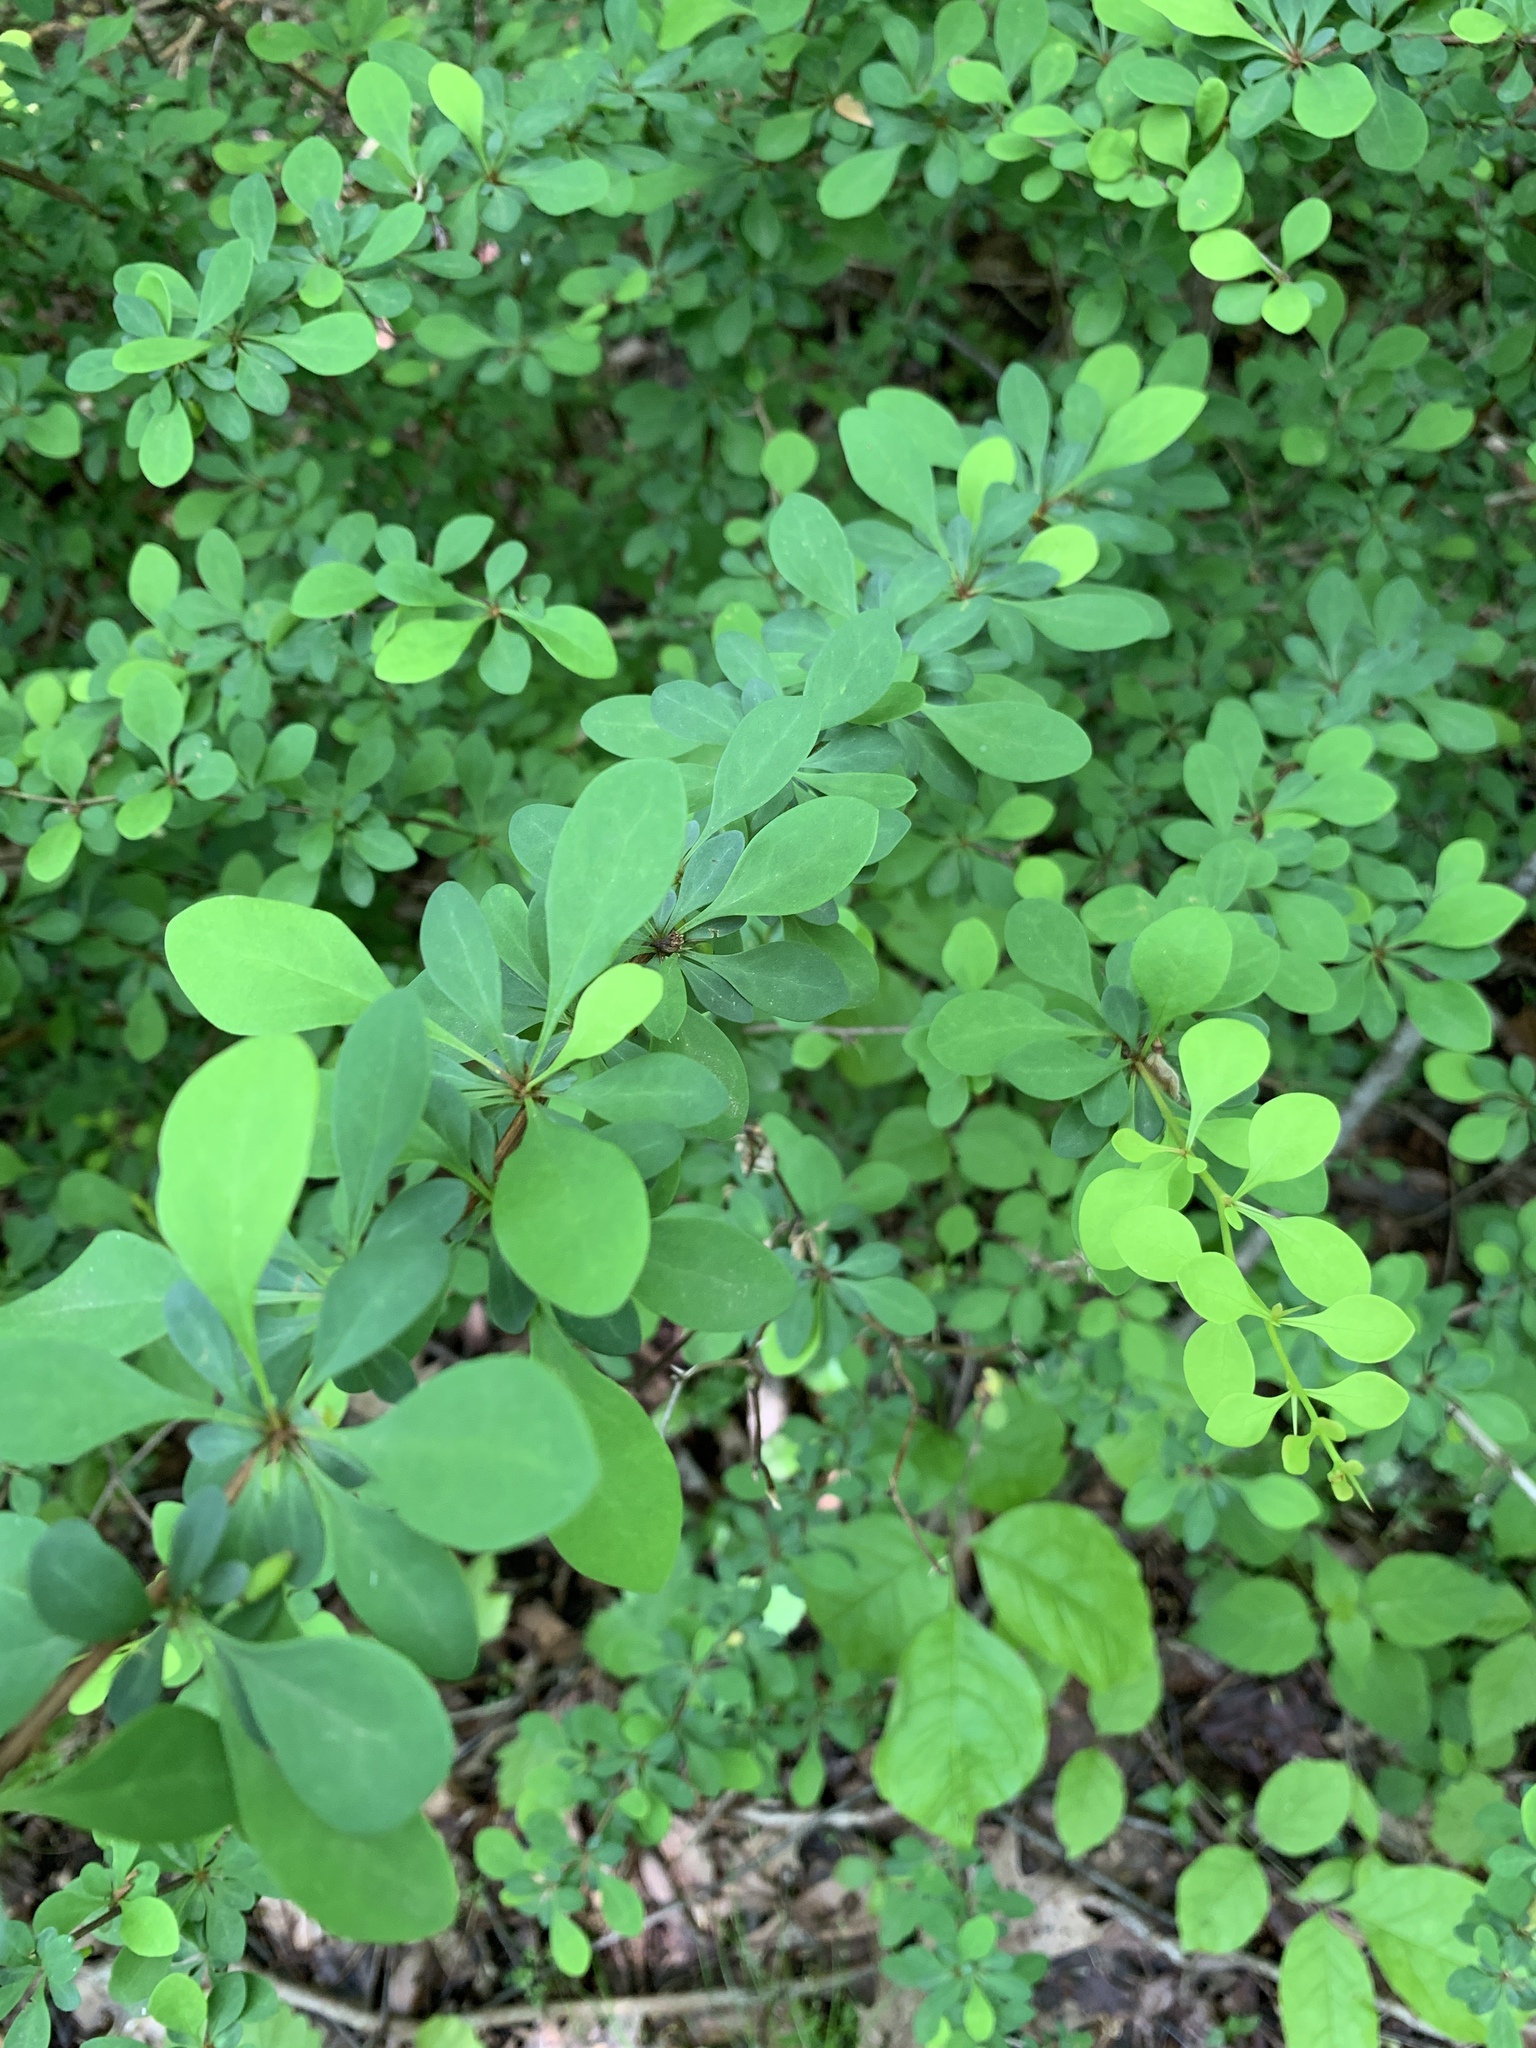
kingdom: Plantae
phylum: Tracheophyta
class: Magnoliopsida
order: Ranunculales
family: Berberidaceae
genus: Berberis
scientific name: Berberis thunbergii
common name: Japanese barberry
